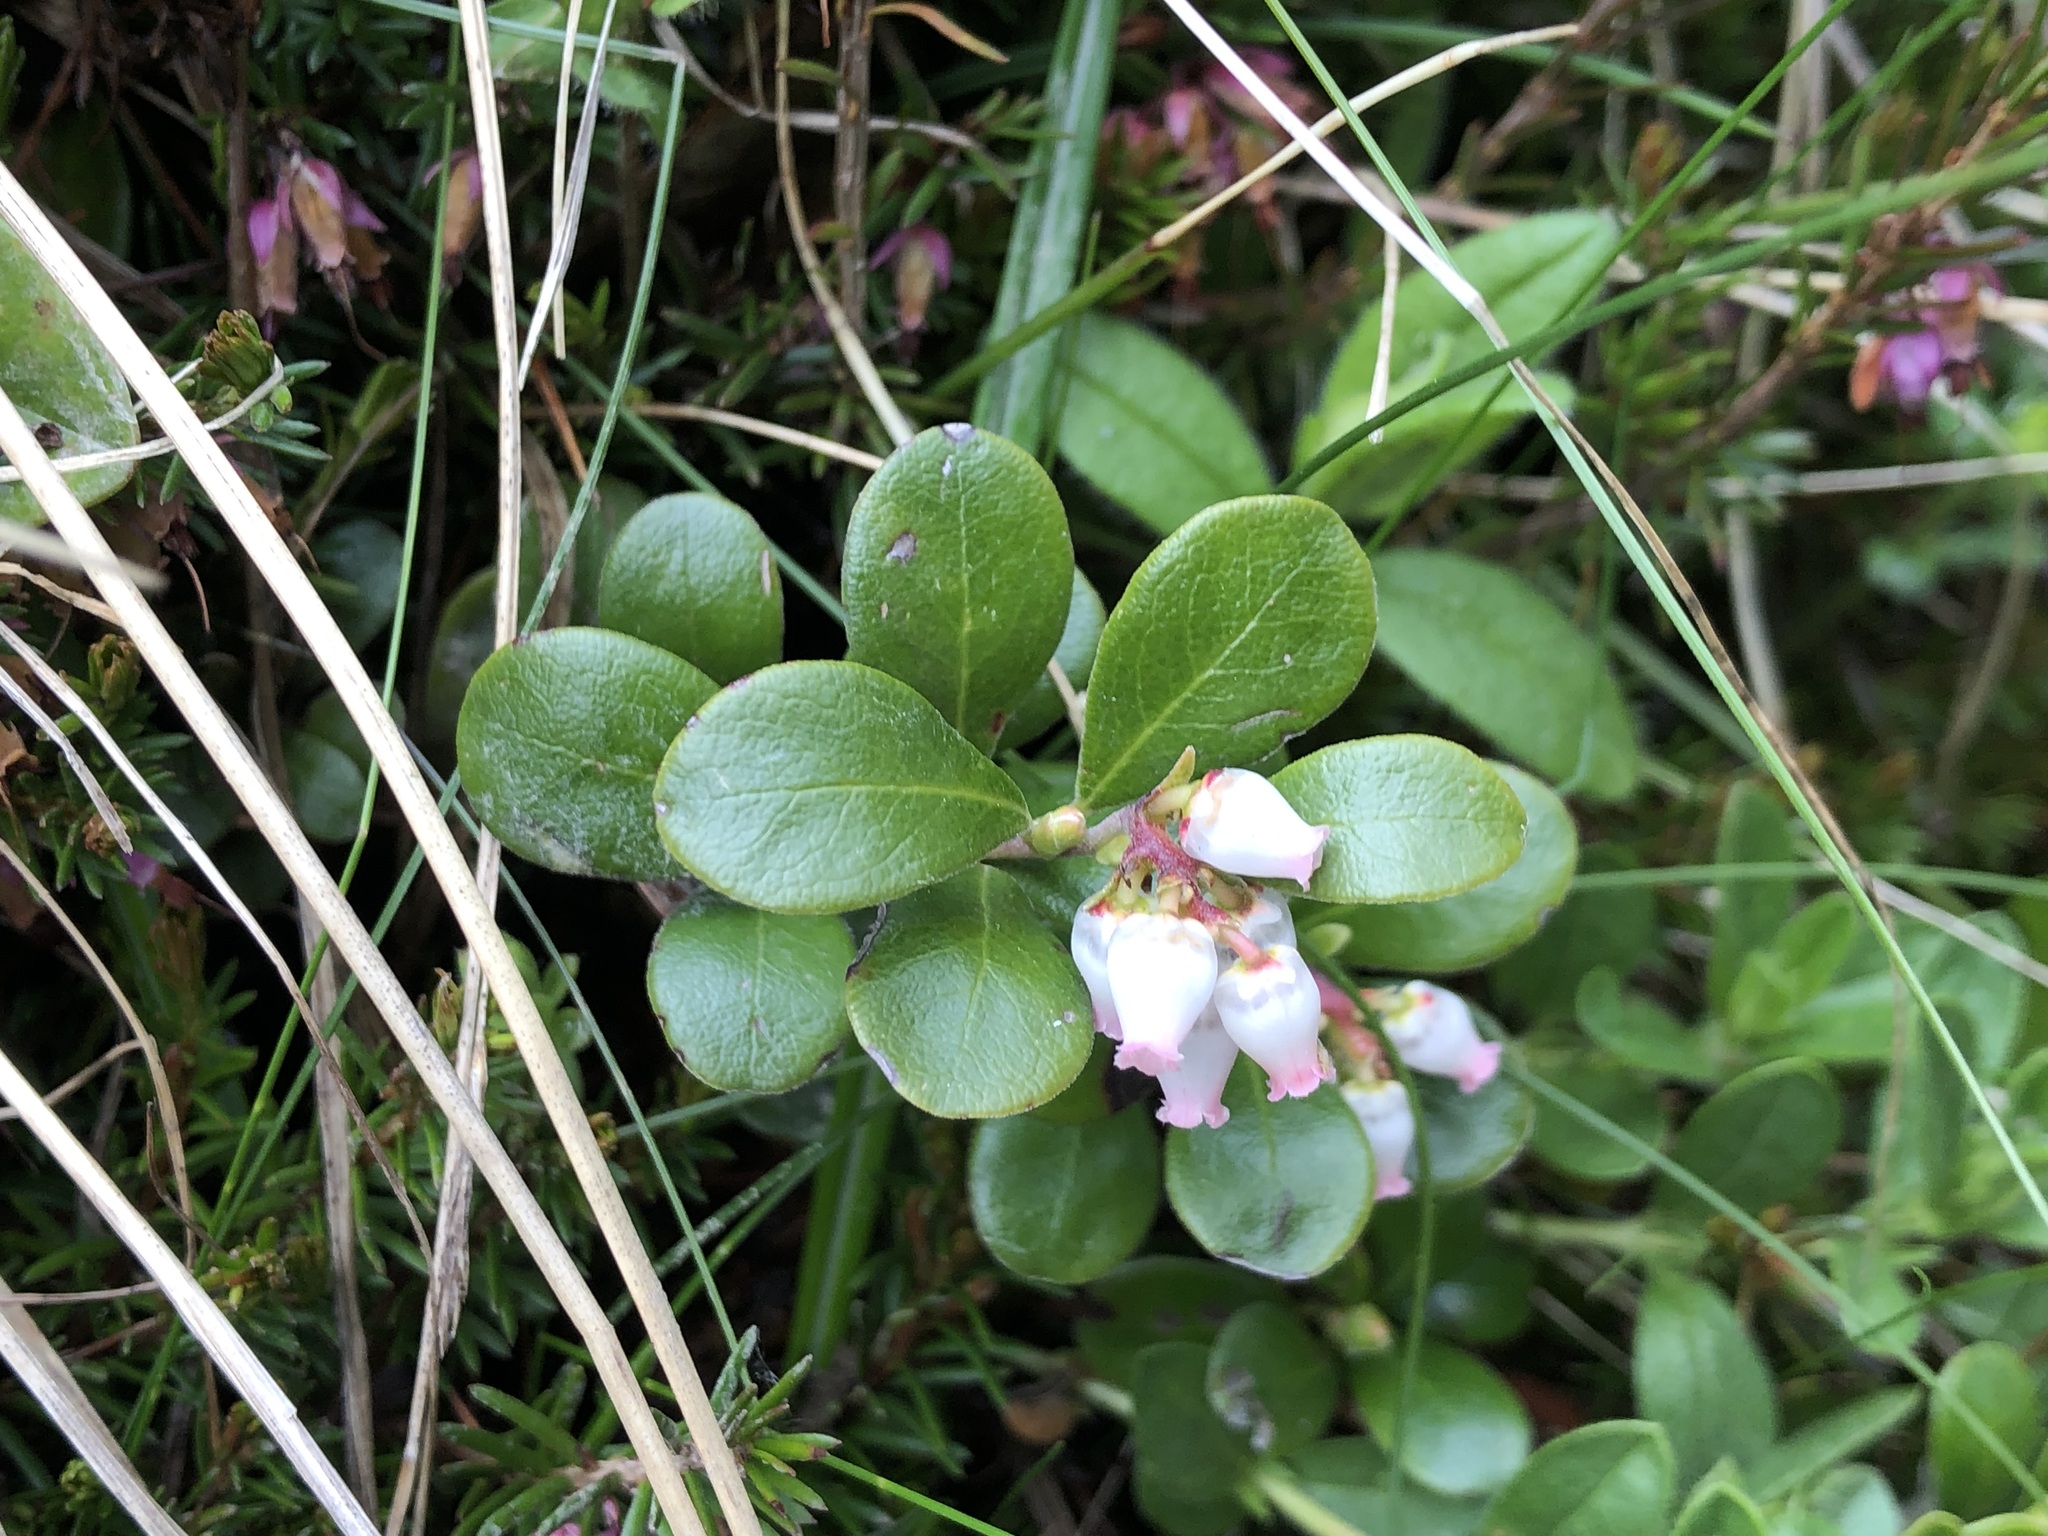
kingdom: Plantae
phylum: Tracheophyta
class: Magnoliopsida
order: Ericales
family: Ericaceae
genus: Arctostaphylos
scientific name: Arctostaphylos uva-ursi
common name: Bearberry
